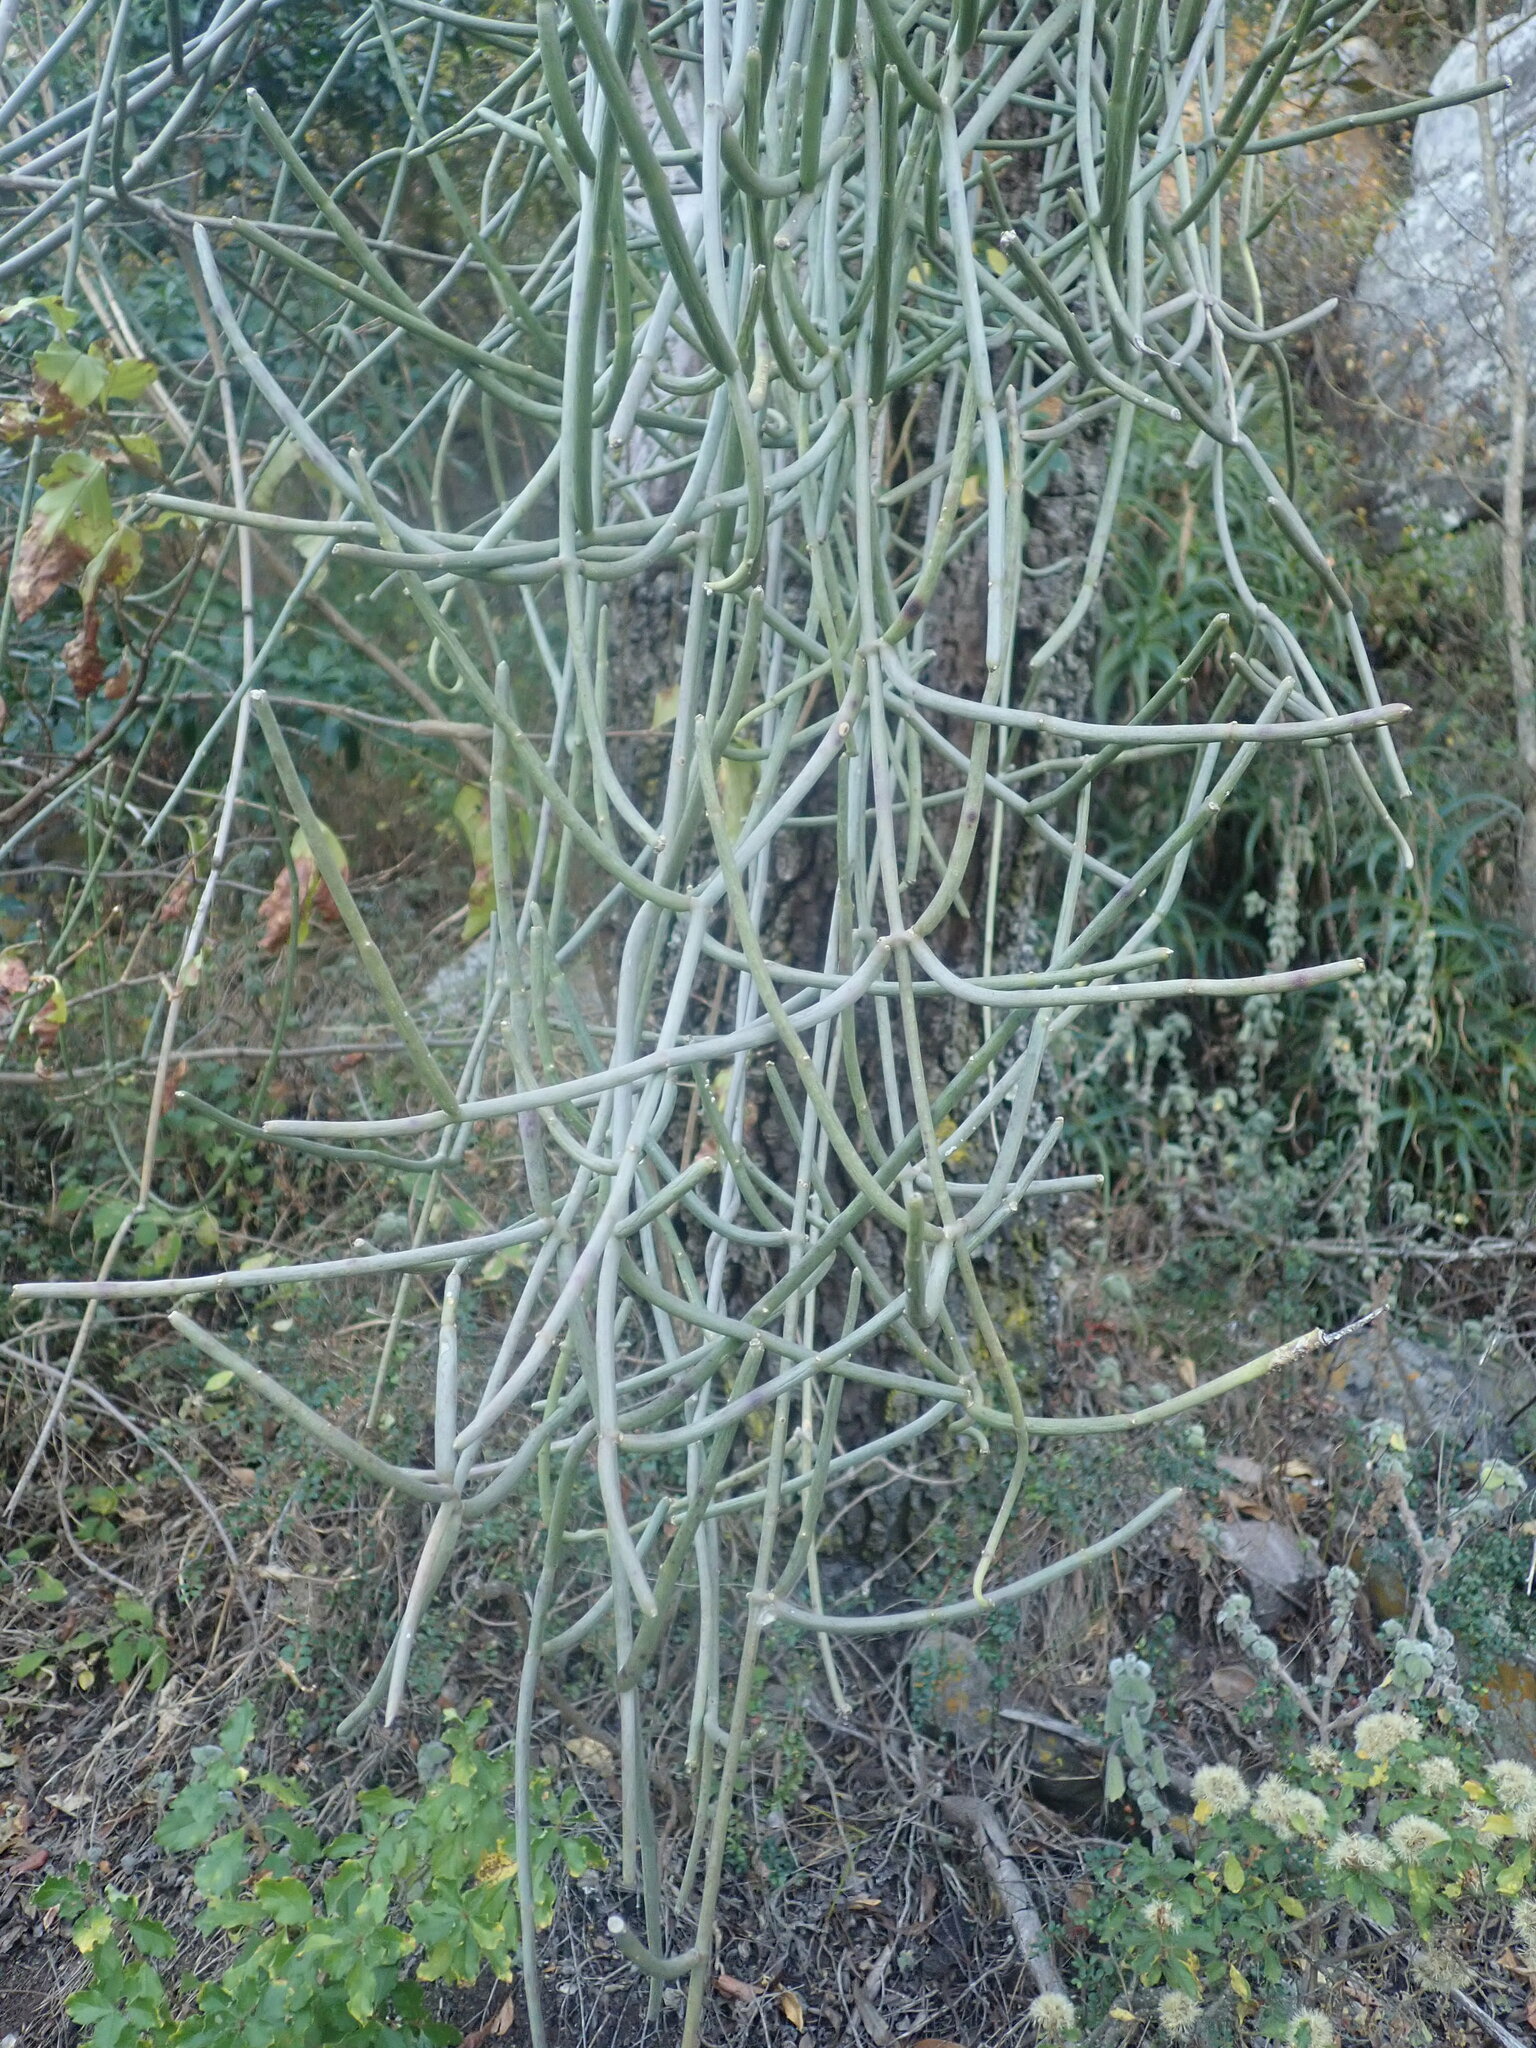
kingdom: Plantae
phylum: Tracheophyta
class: Magnoliopsida
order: Gentianales
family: Apocynaceae
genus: Cynanchum
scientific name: Cynanchum viminale
